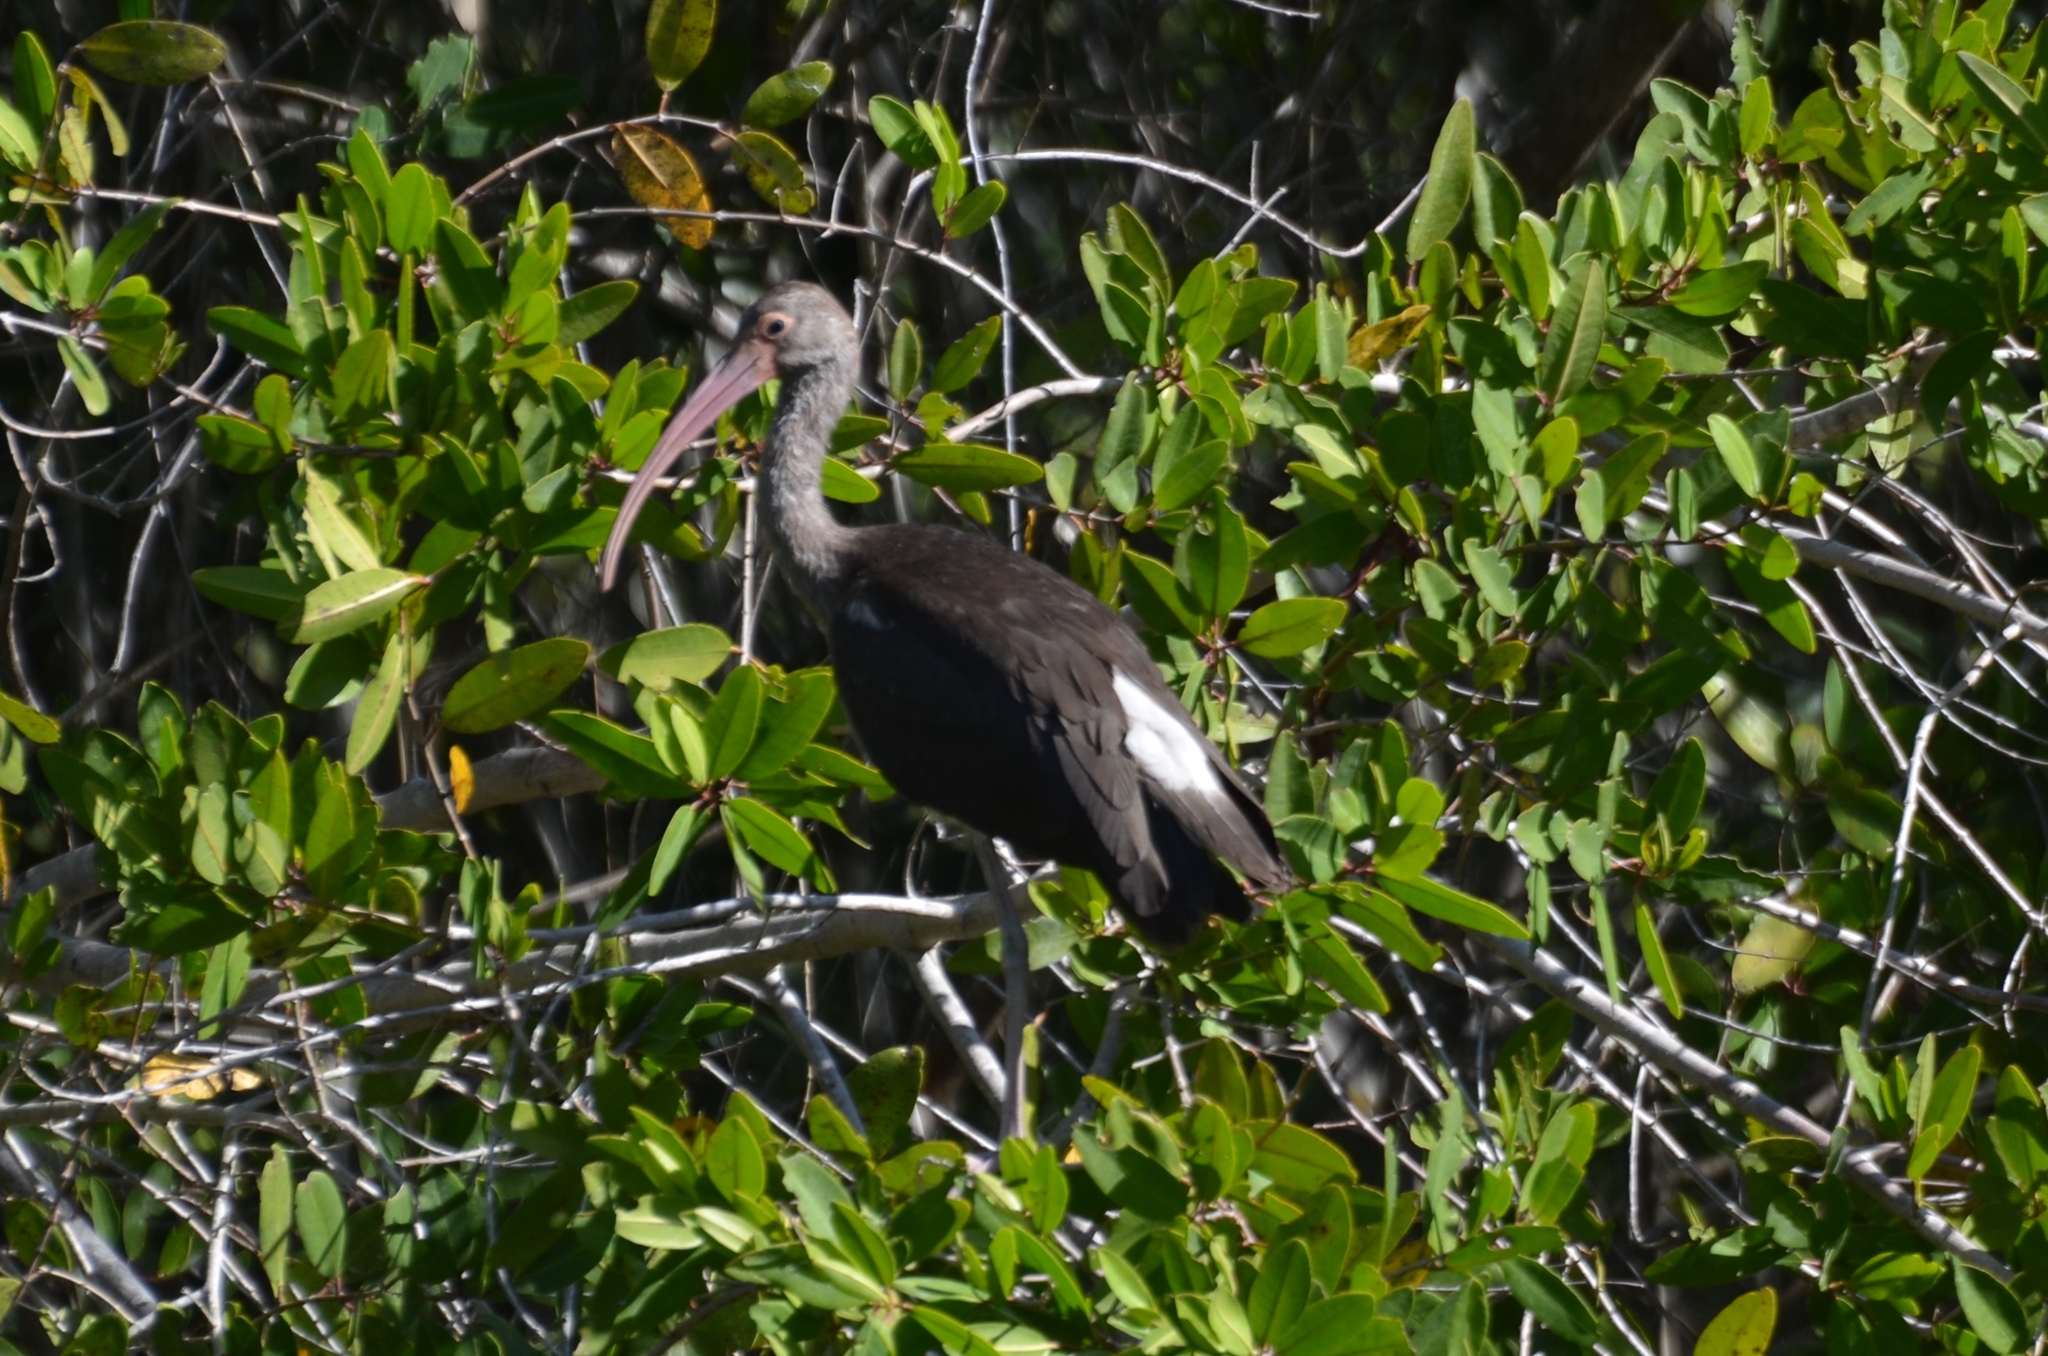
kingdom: Animalia
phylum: Chordata
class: Aves
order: Pelecaniformes
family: Threskiornithidae
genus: Eudocimus
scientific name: Eudocimus albus
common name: White ibis
